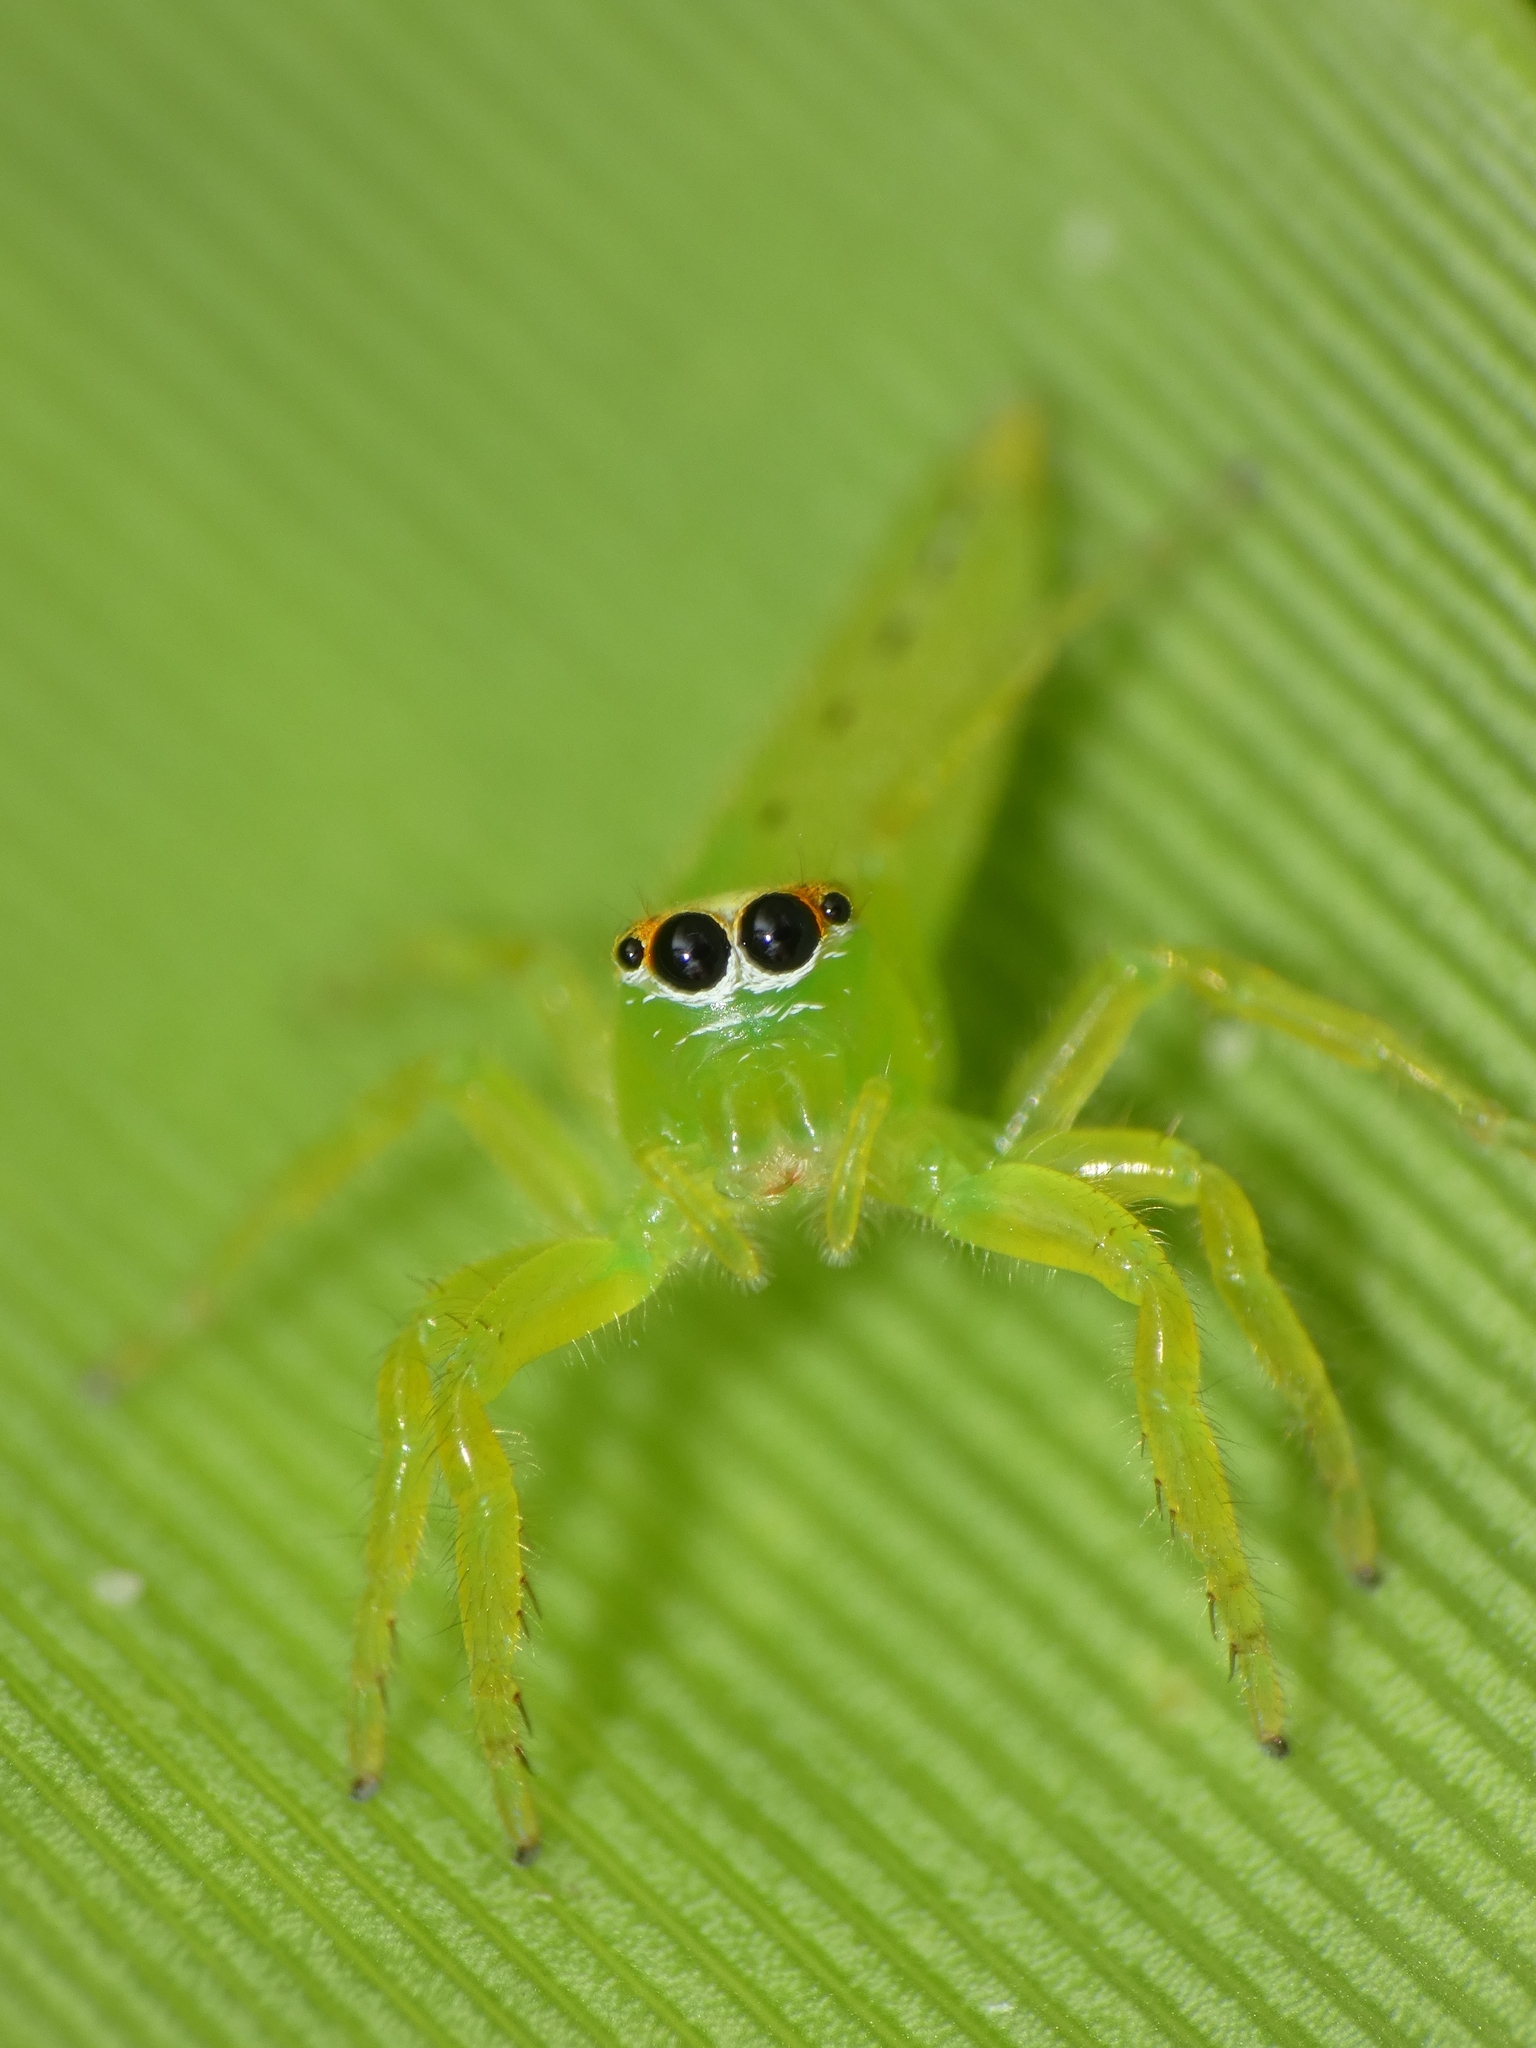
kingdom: Animalia
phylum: Arthropoda
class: Arachnida
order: Araneae
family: Salticidae
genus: Mopsus
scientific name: Mopsus mormon
